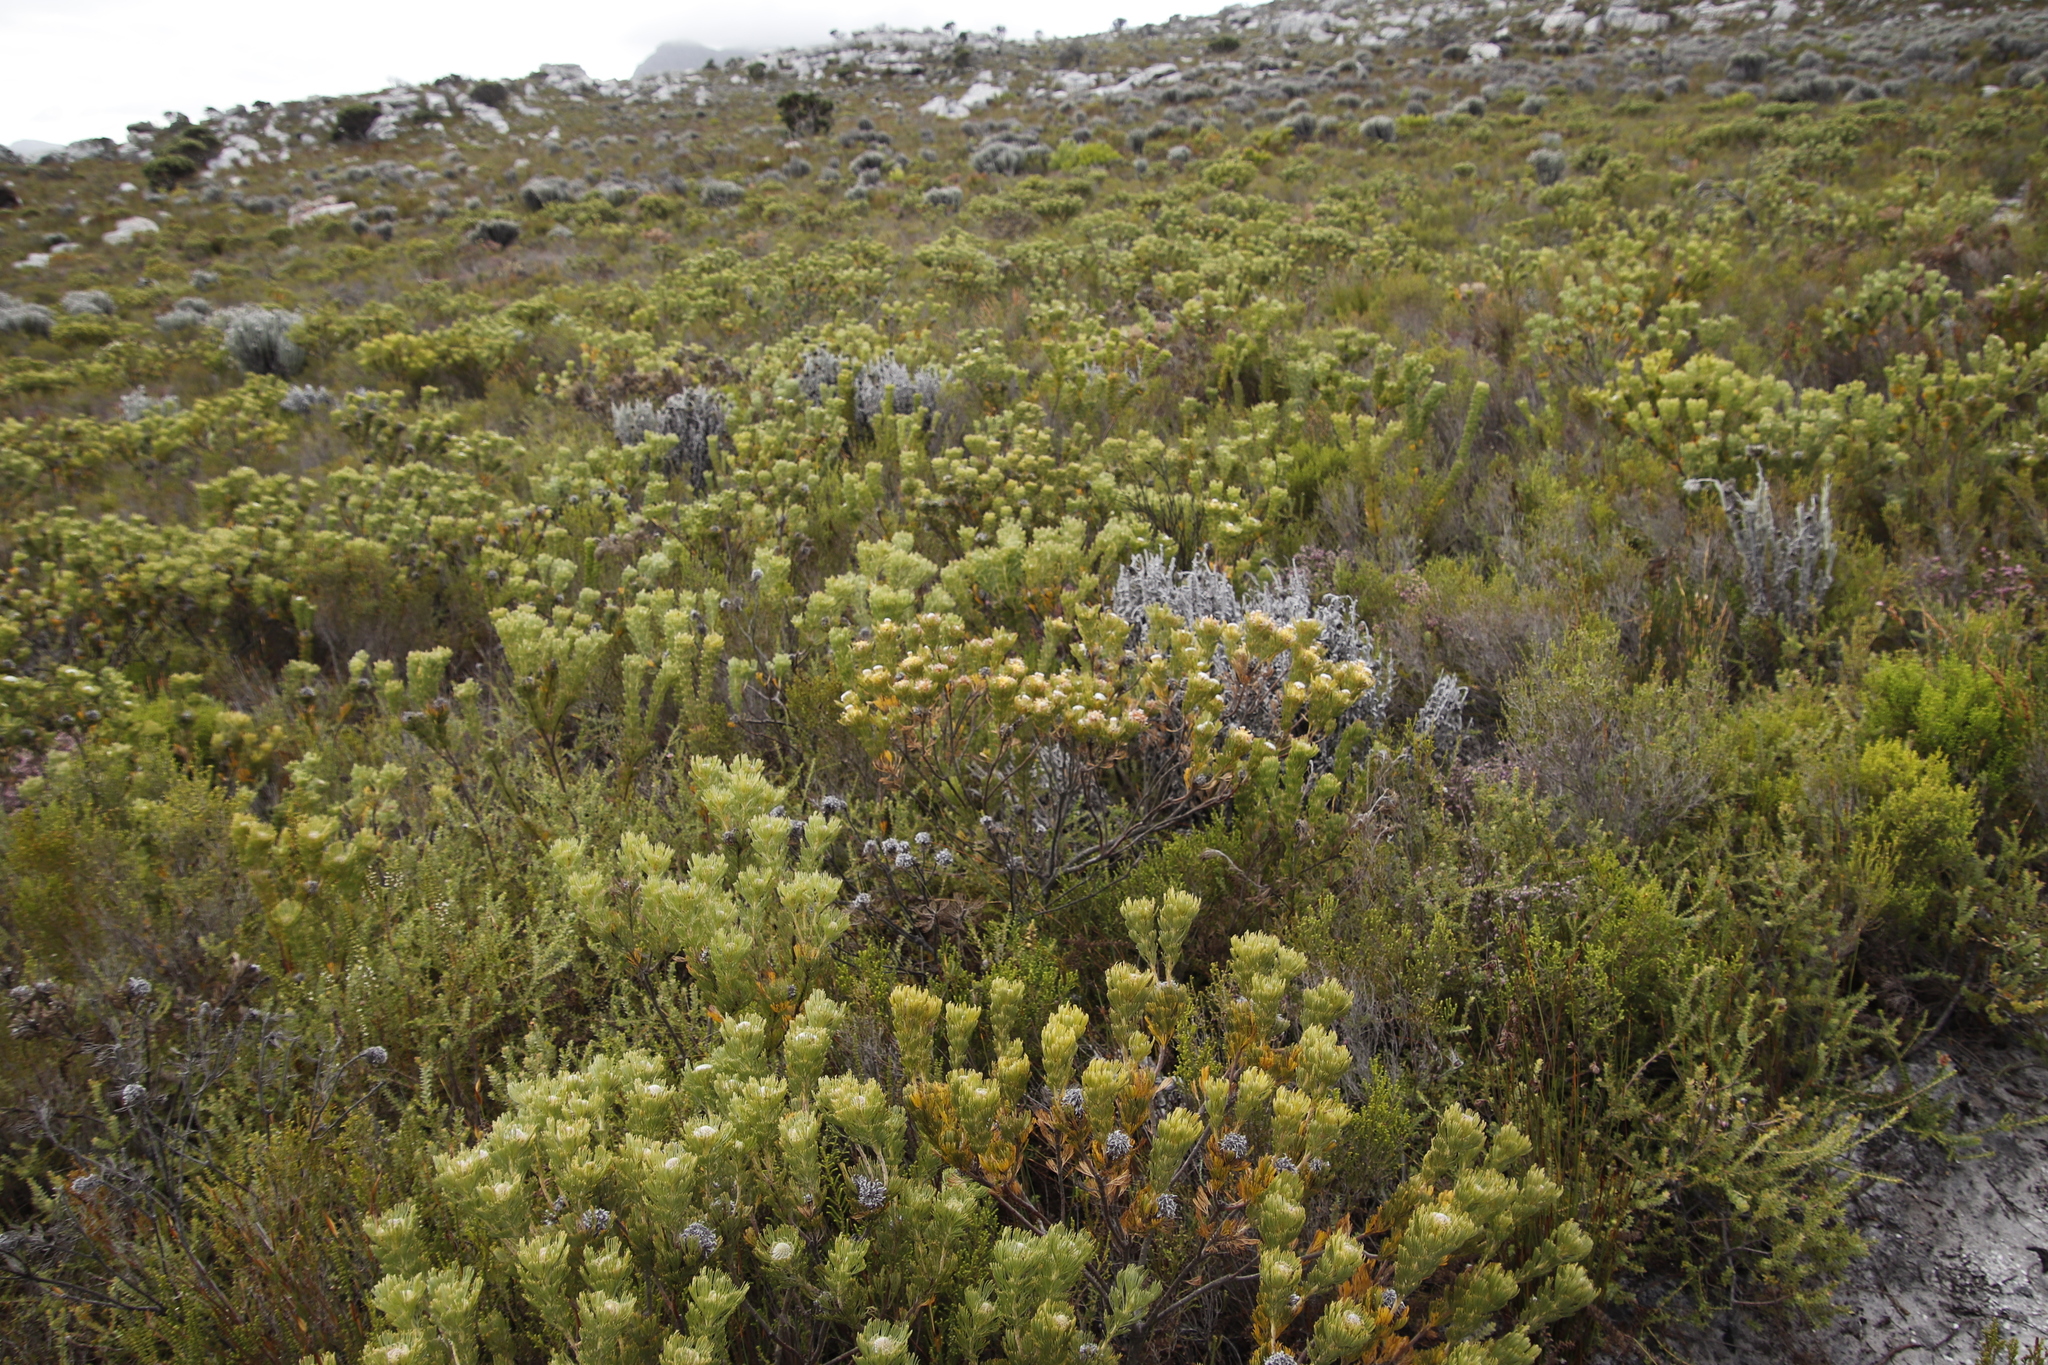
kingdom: Plantae
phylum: Tracheophyta
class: Magnoliopsida
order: Proteales
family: Proteaceae
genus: Serruria
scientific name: Serruria villosa
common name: Golden spiderhead
